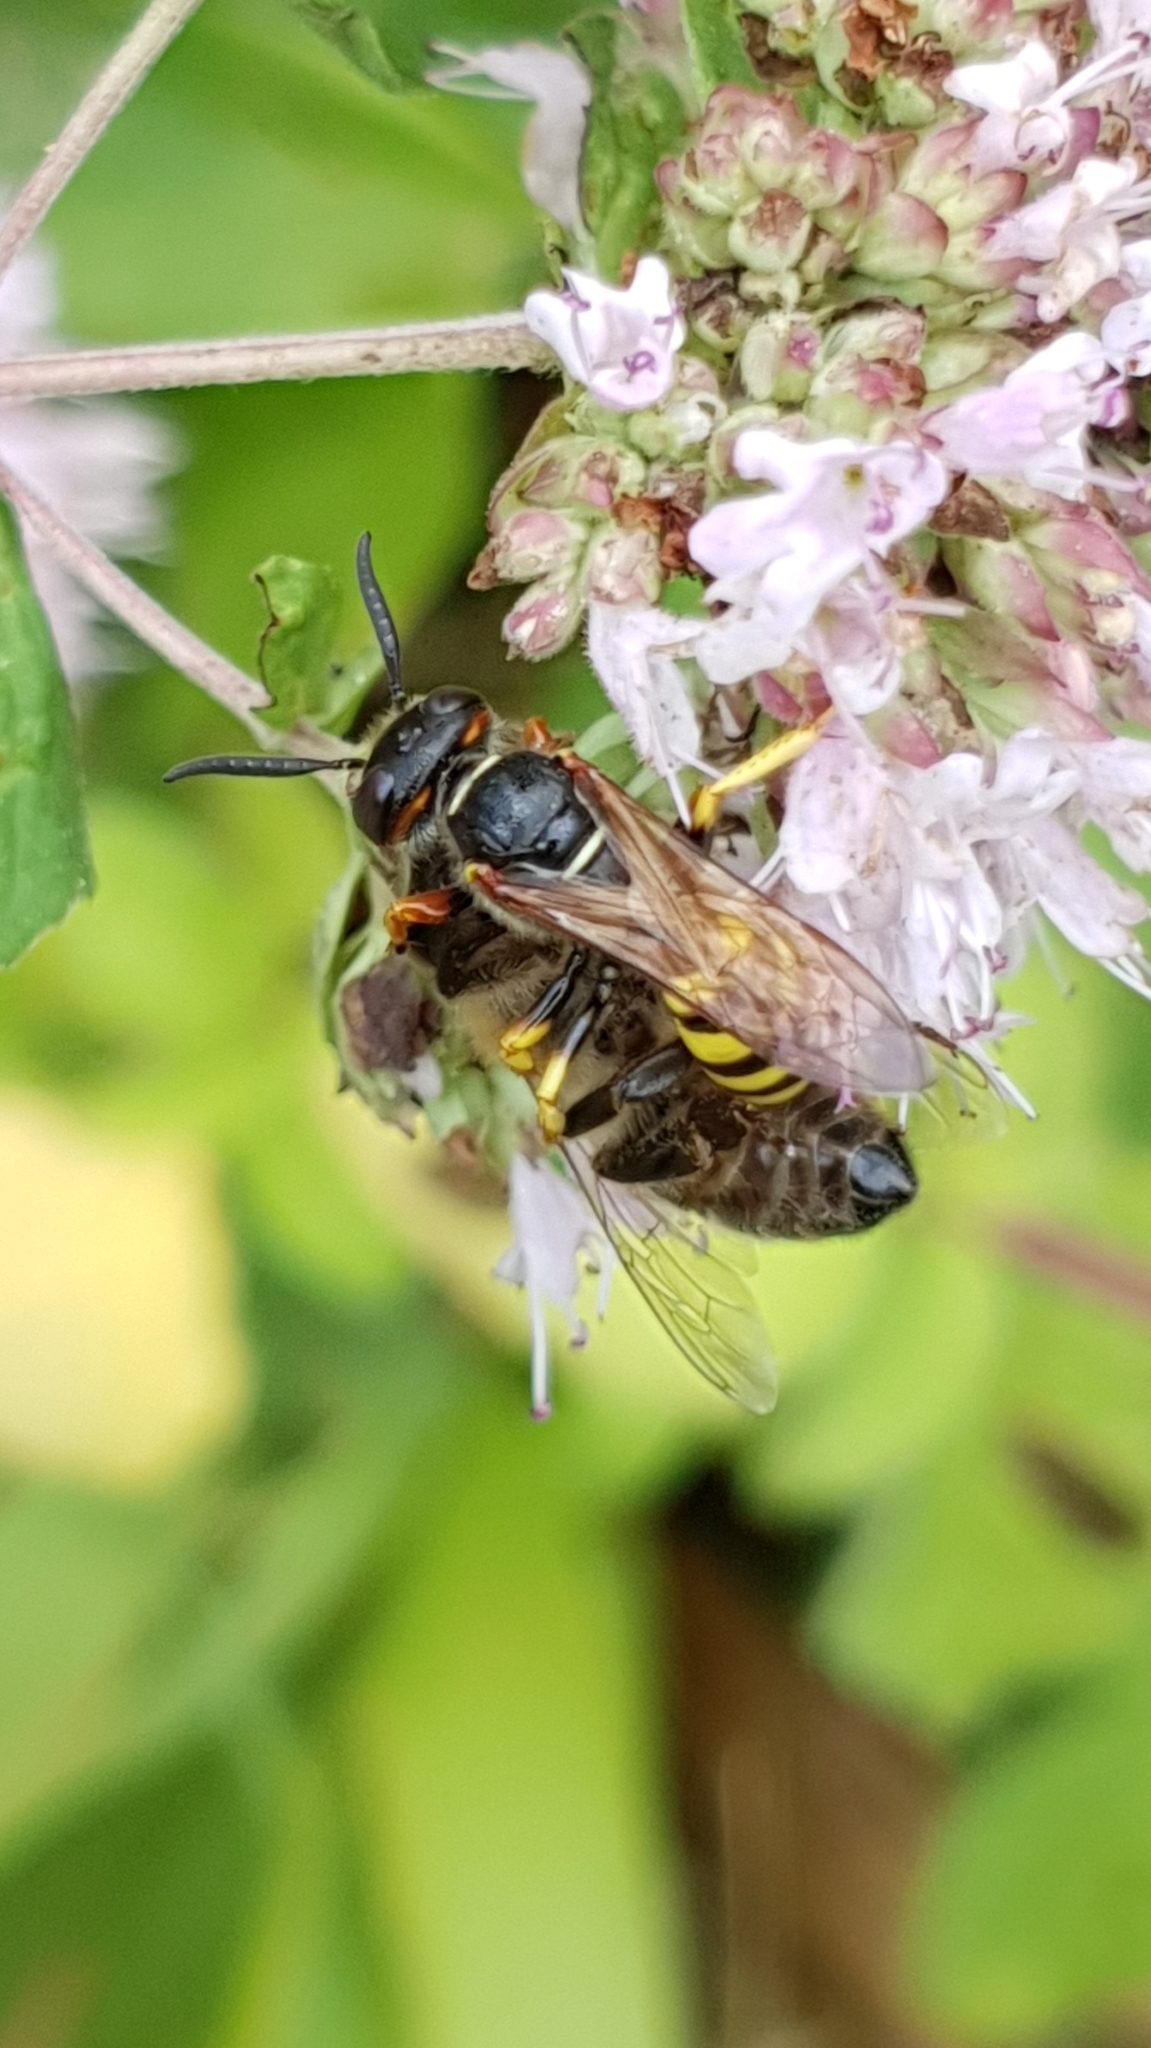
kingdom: Animalia
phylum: Arthropoda
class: Insecta
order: Hymenoptera
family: Crabronidae
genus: Philanthus
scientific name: Philanthus triangulum
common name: Bee wolf
